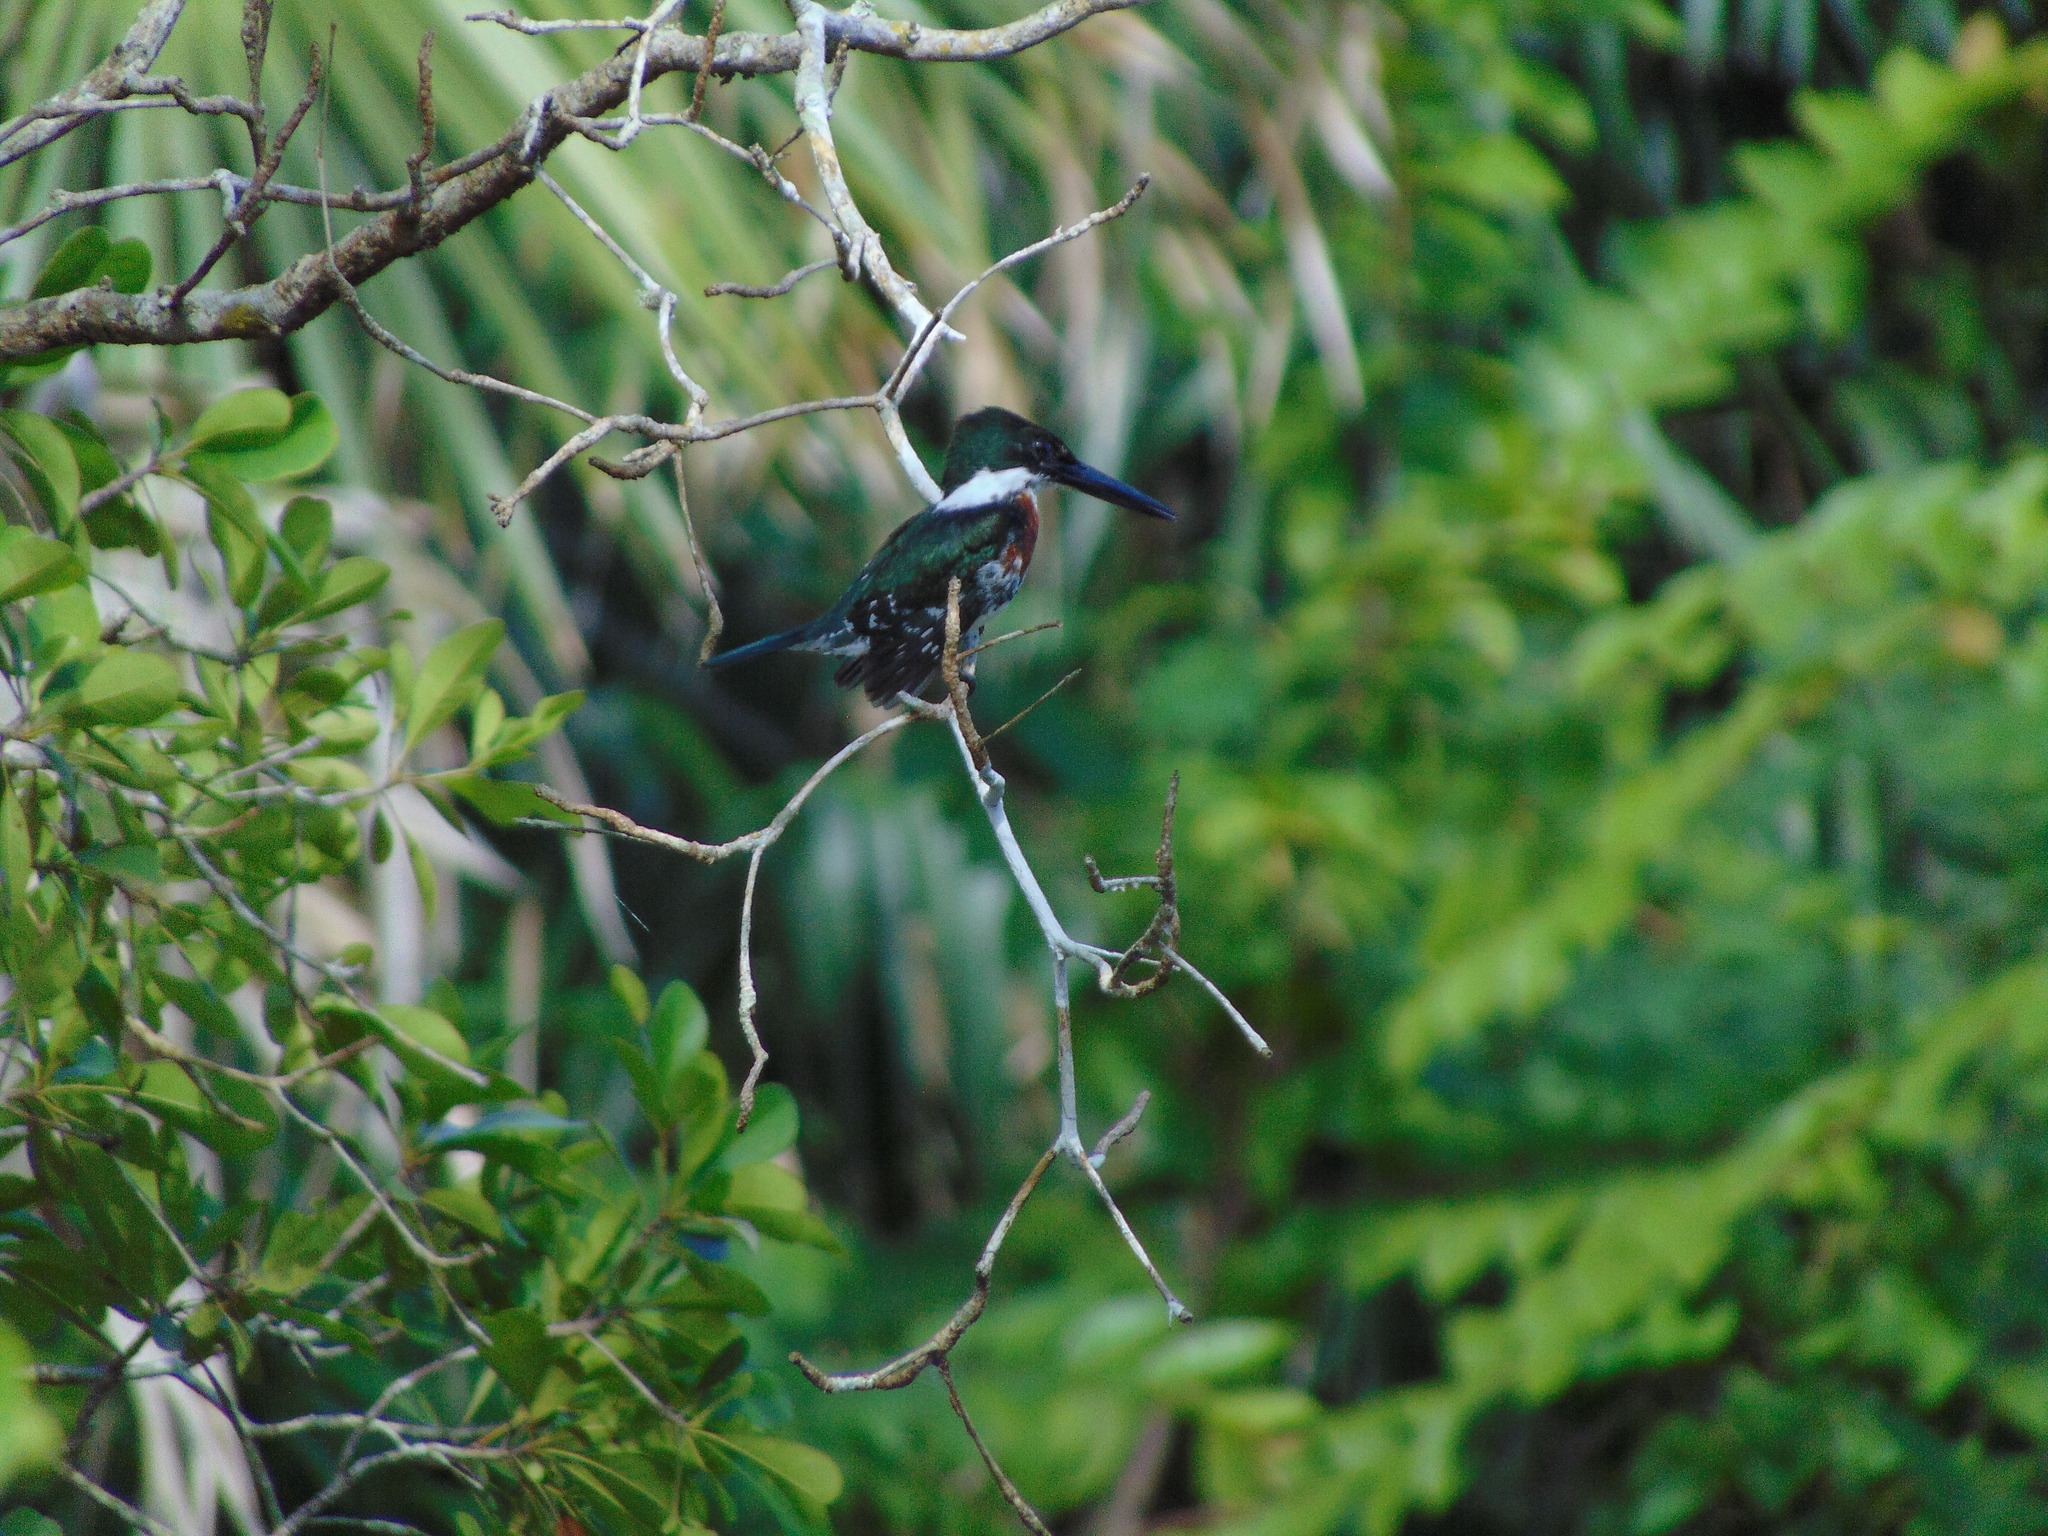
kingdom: Animalia
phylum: Chordata
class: Aves
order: Coraciiformes
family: Alcedinidae
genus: Chloroceryle
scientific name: Chloroceryle americana
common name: Green kingfisher
